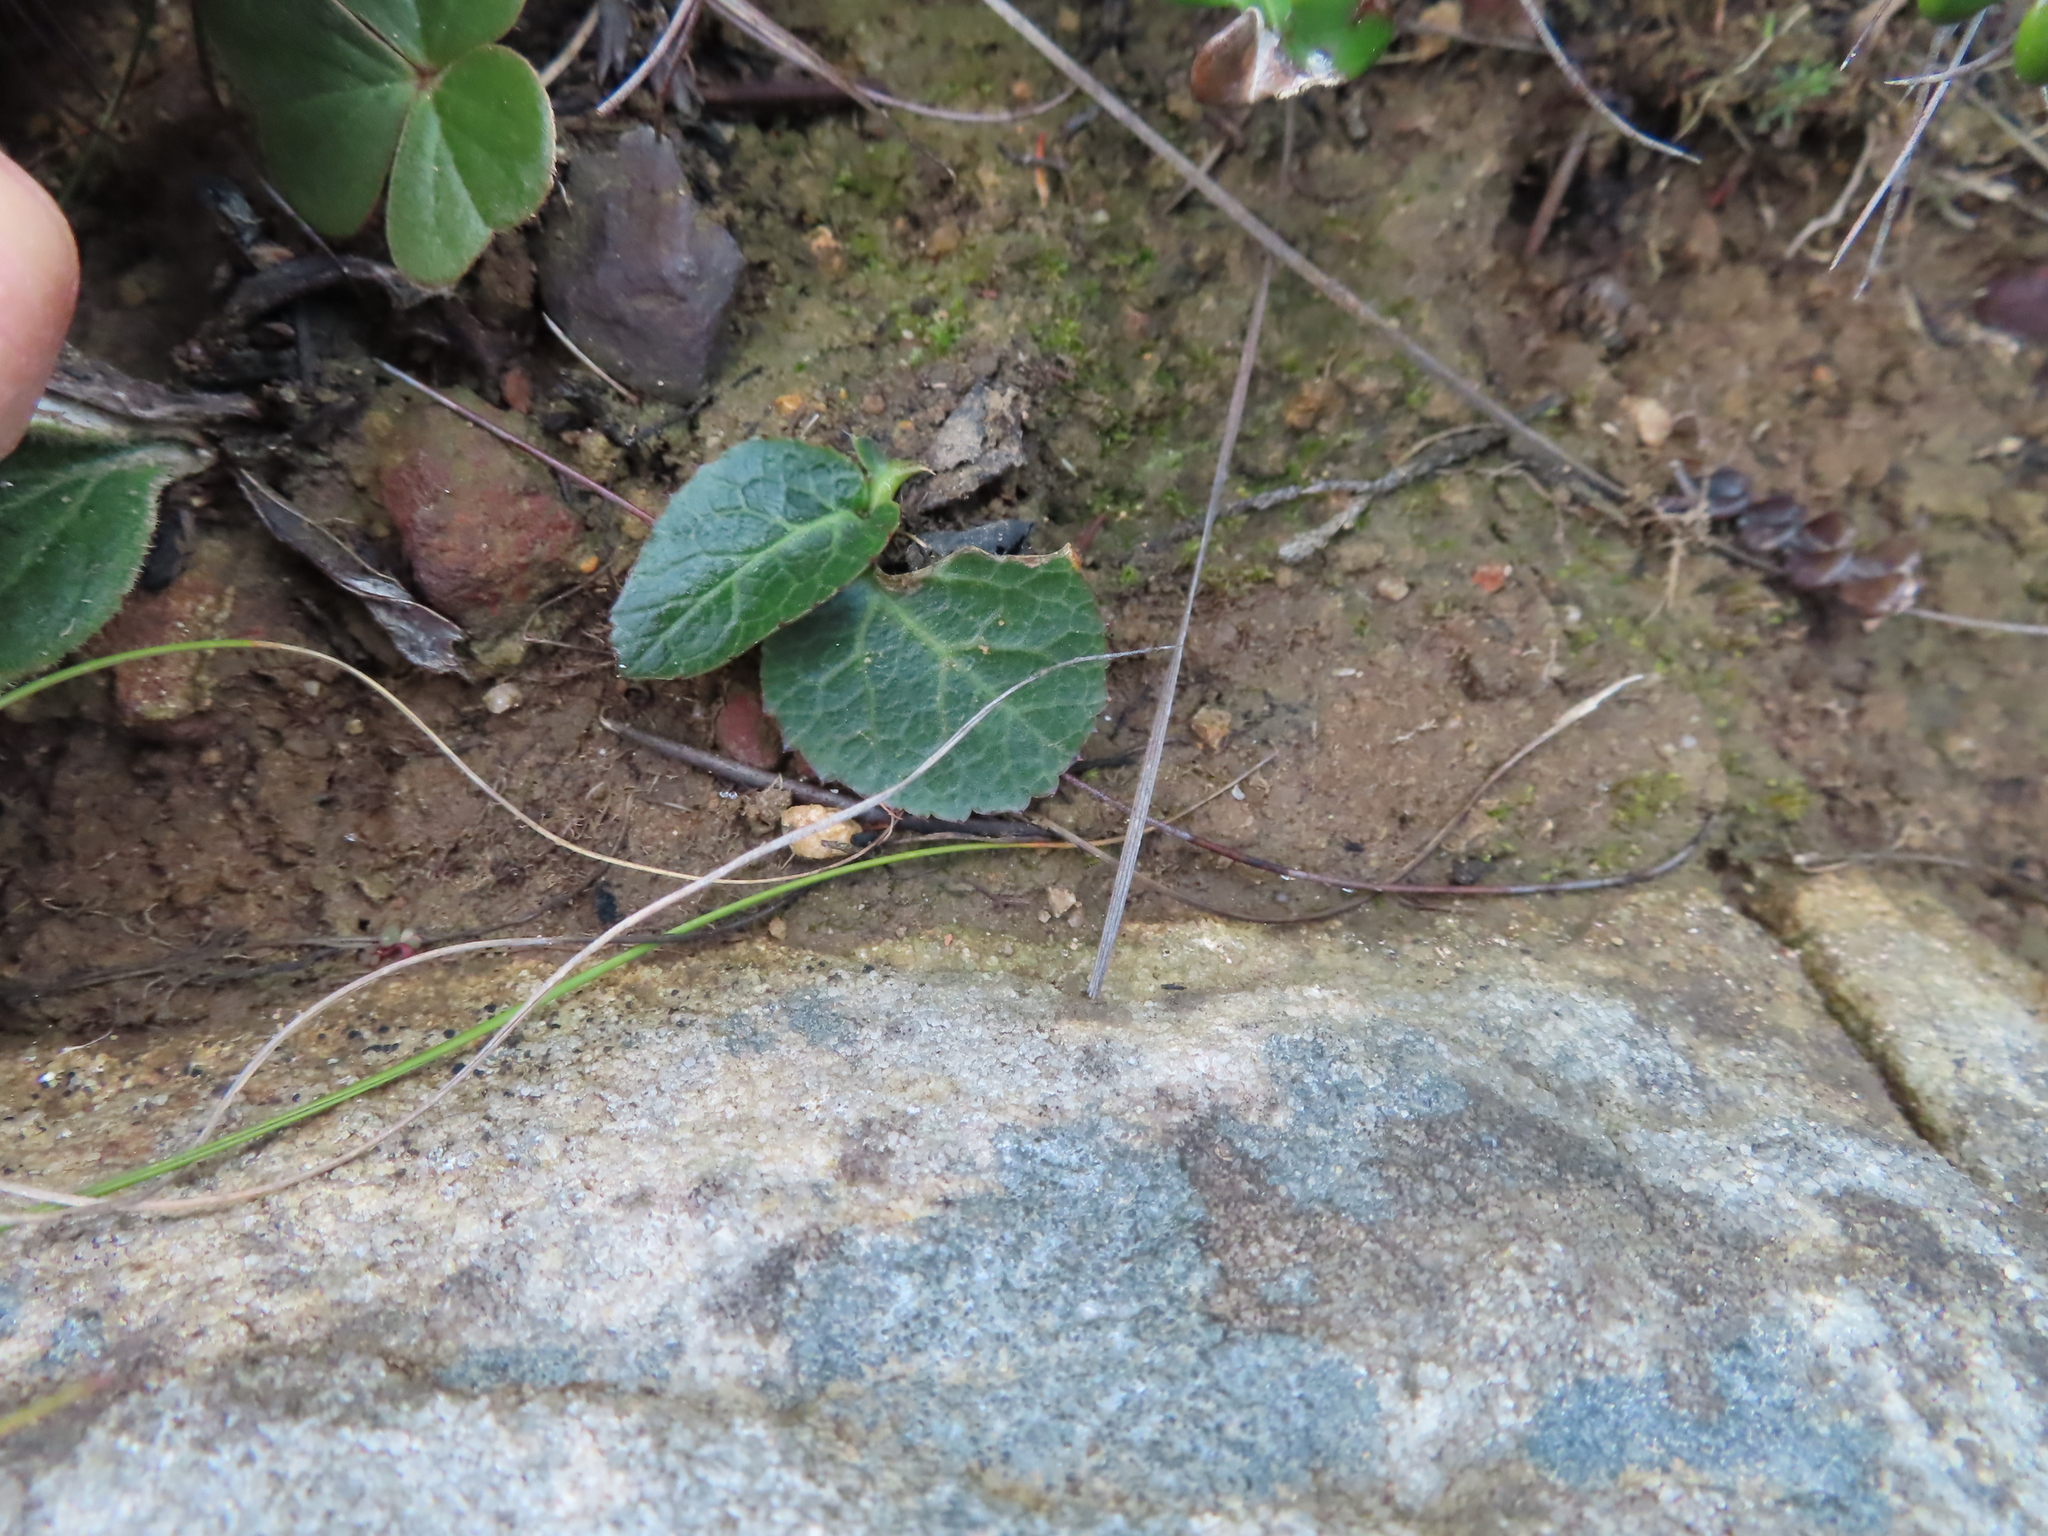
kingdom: Plantae
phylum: Tracheophyta
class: Magnoliopsida
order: Geraniales
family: Geraniaceae
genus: Pelargonium
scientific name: Pelargonium asarifolium
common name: Asarum-leaf pelargonium
